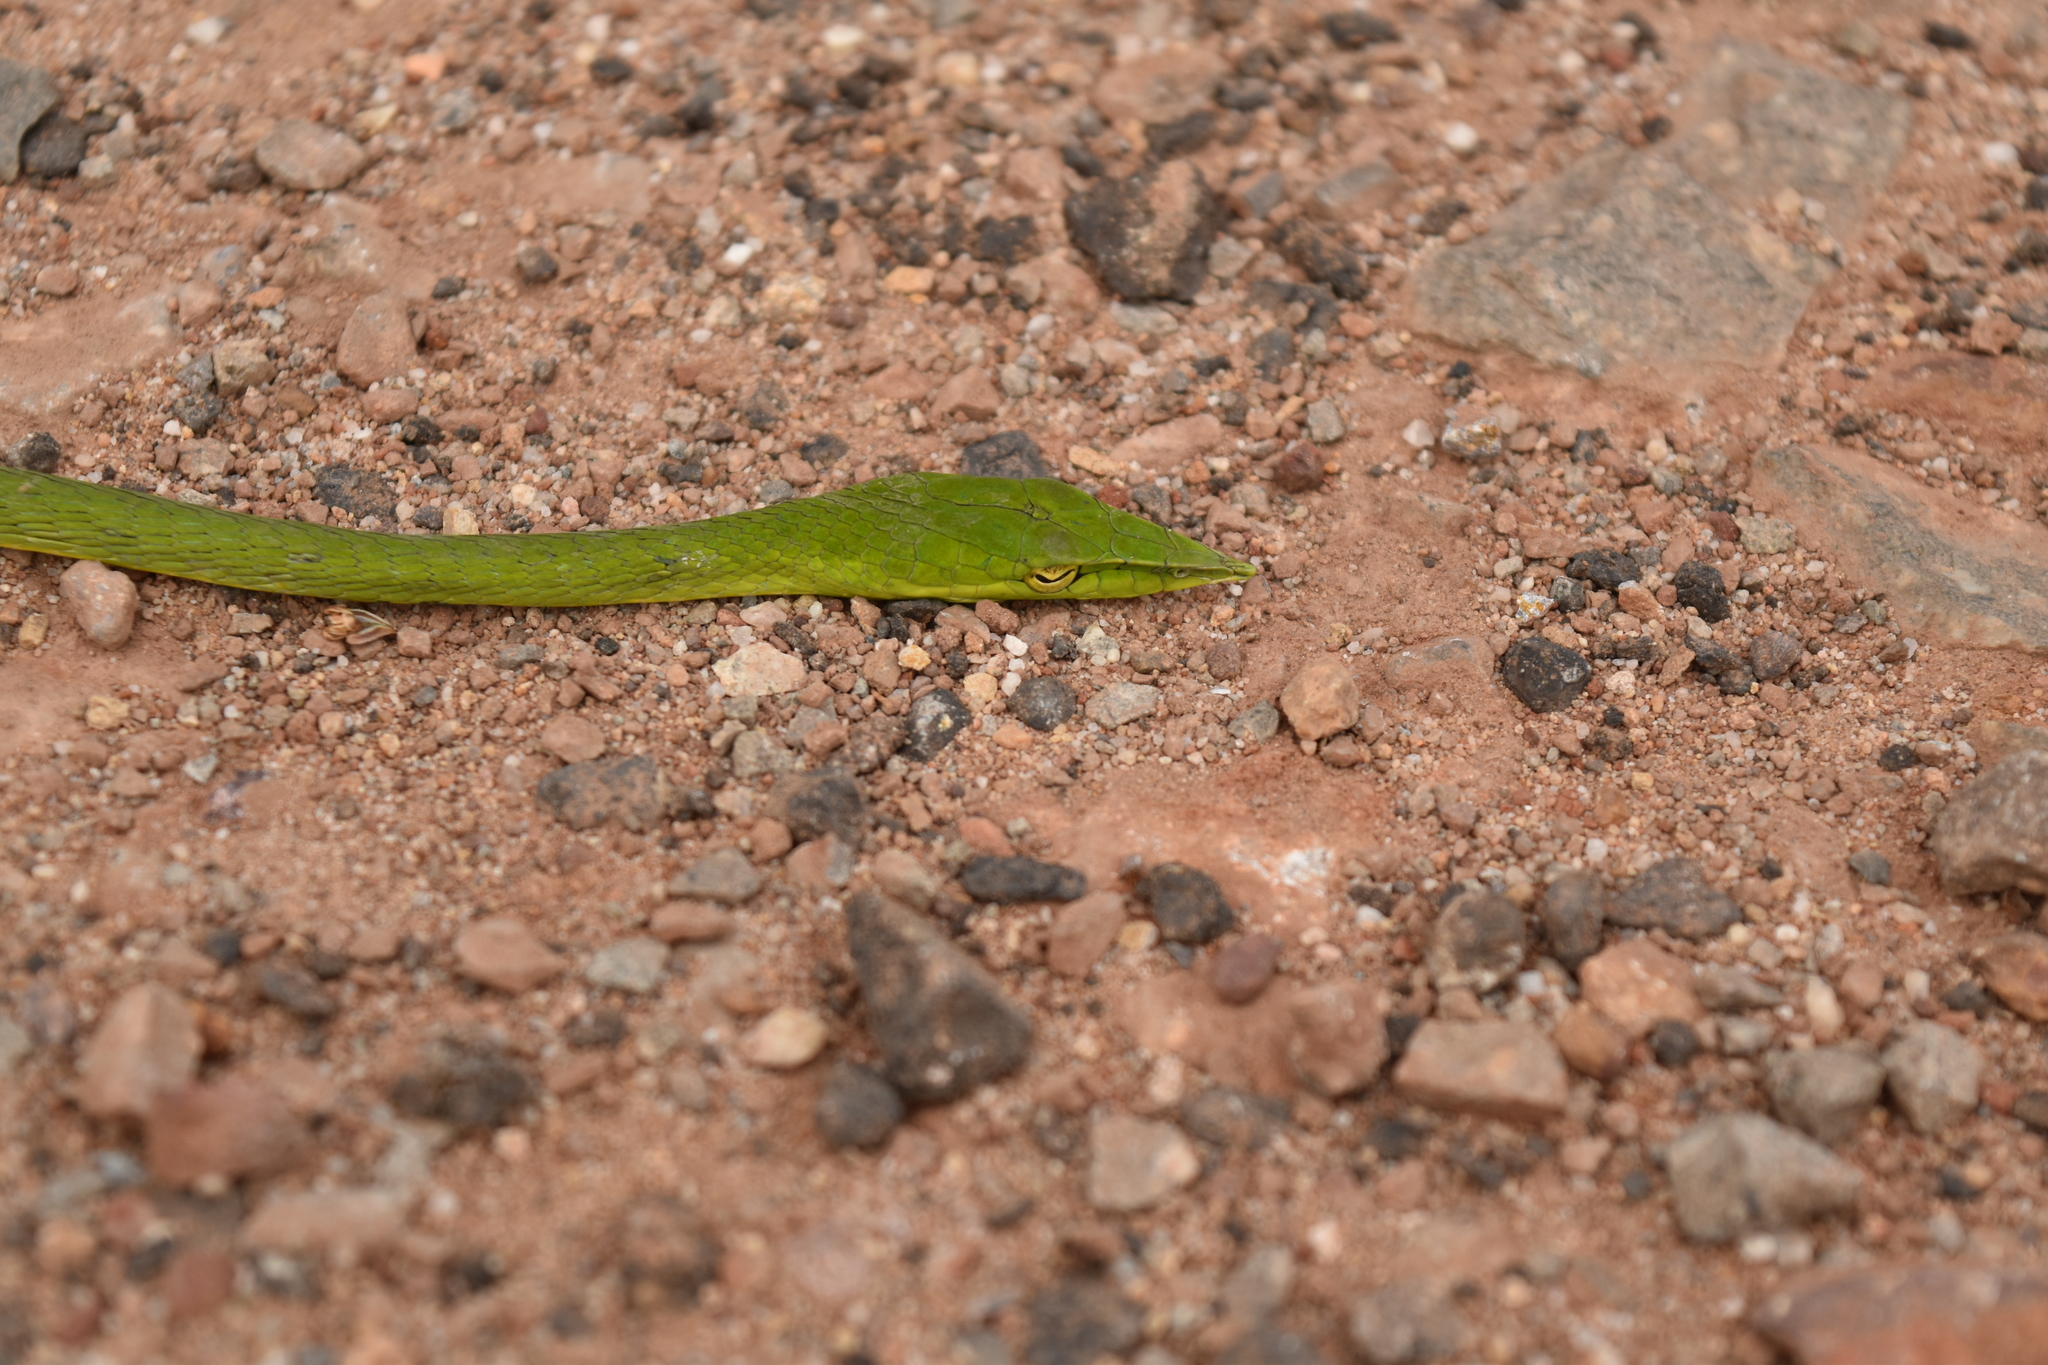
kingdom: Animalia
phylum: Chordata
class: Squamata
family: Colubridae
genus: Ahaetulla
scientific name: Ahaetulla prasina
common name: Oriental whip snake
